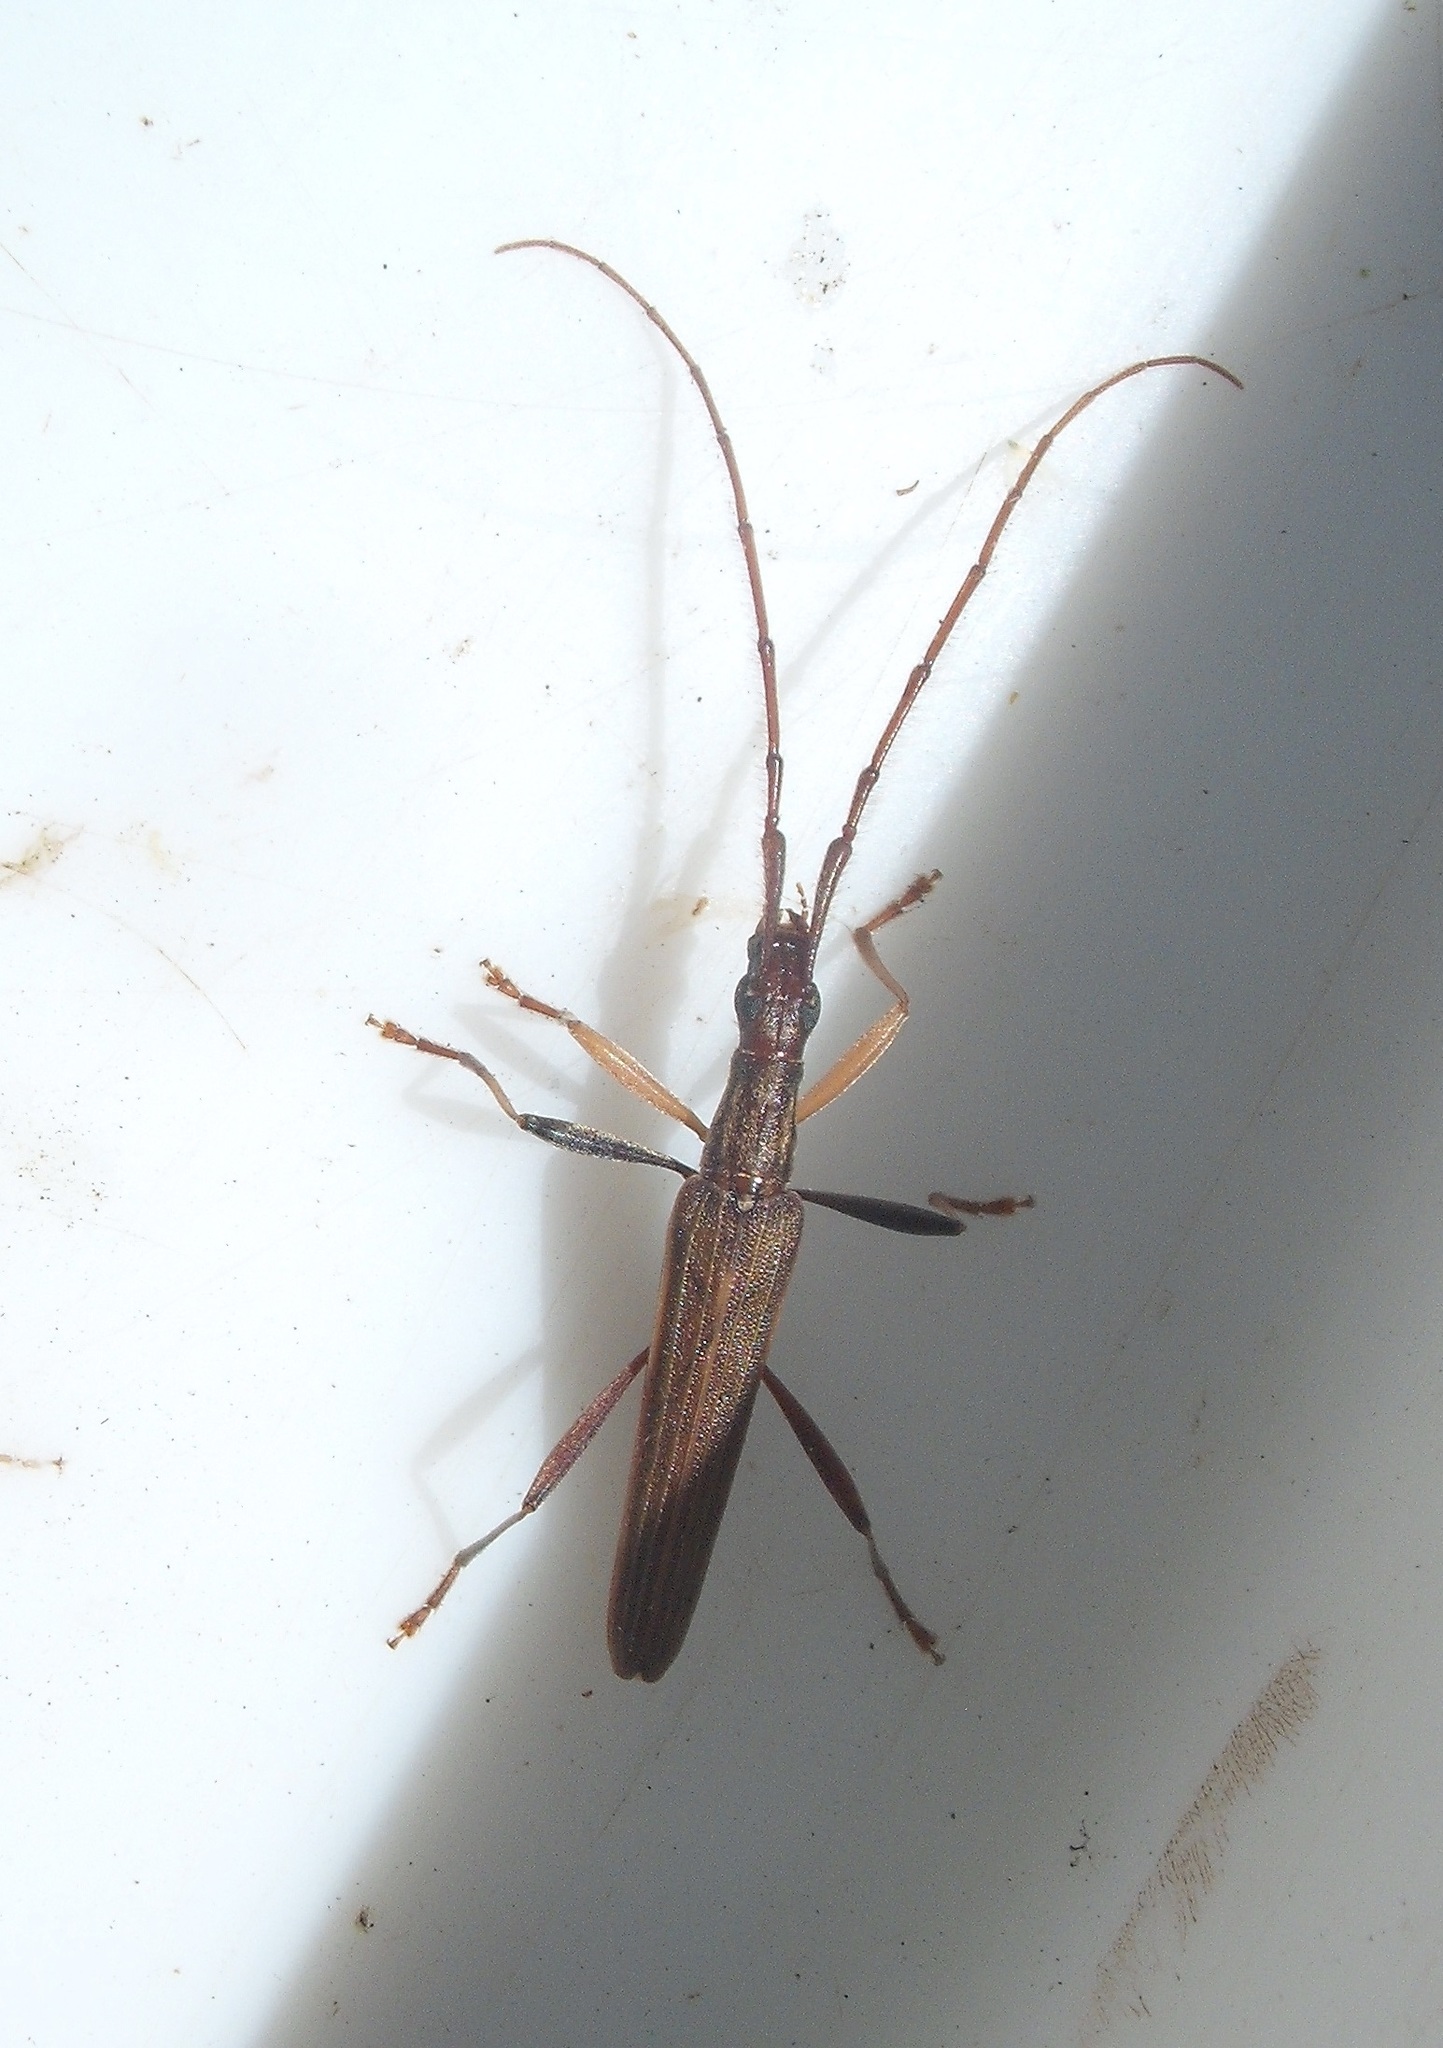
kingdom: Animalia
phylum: Arthropoda
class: Insecta
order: Coleoptera
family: Cerambycidae
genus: Stenopotes
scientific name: Stenopotes pallidus
